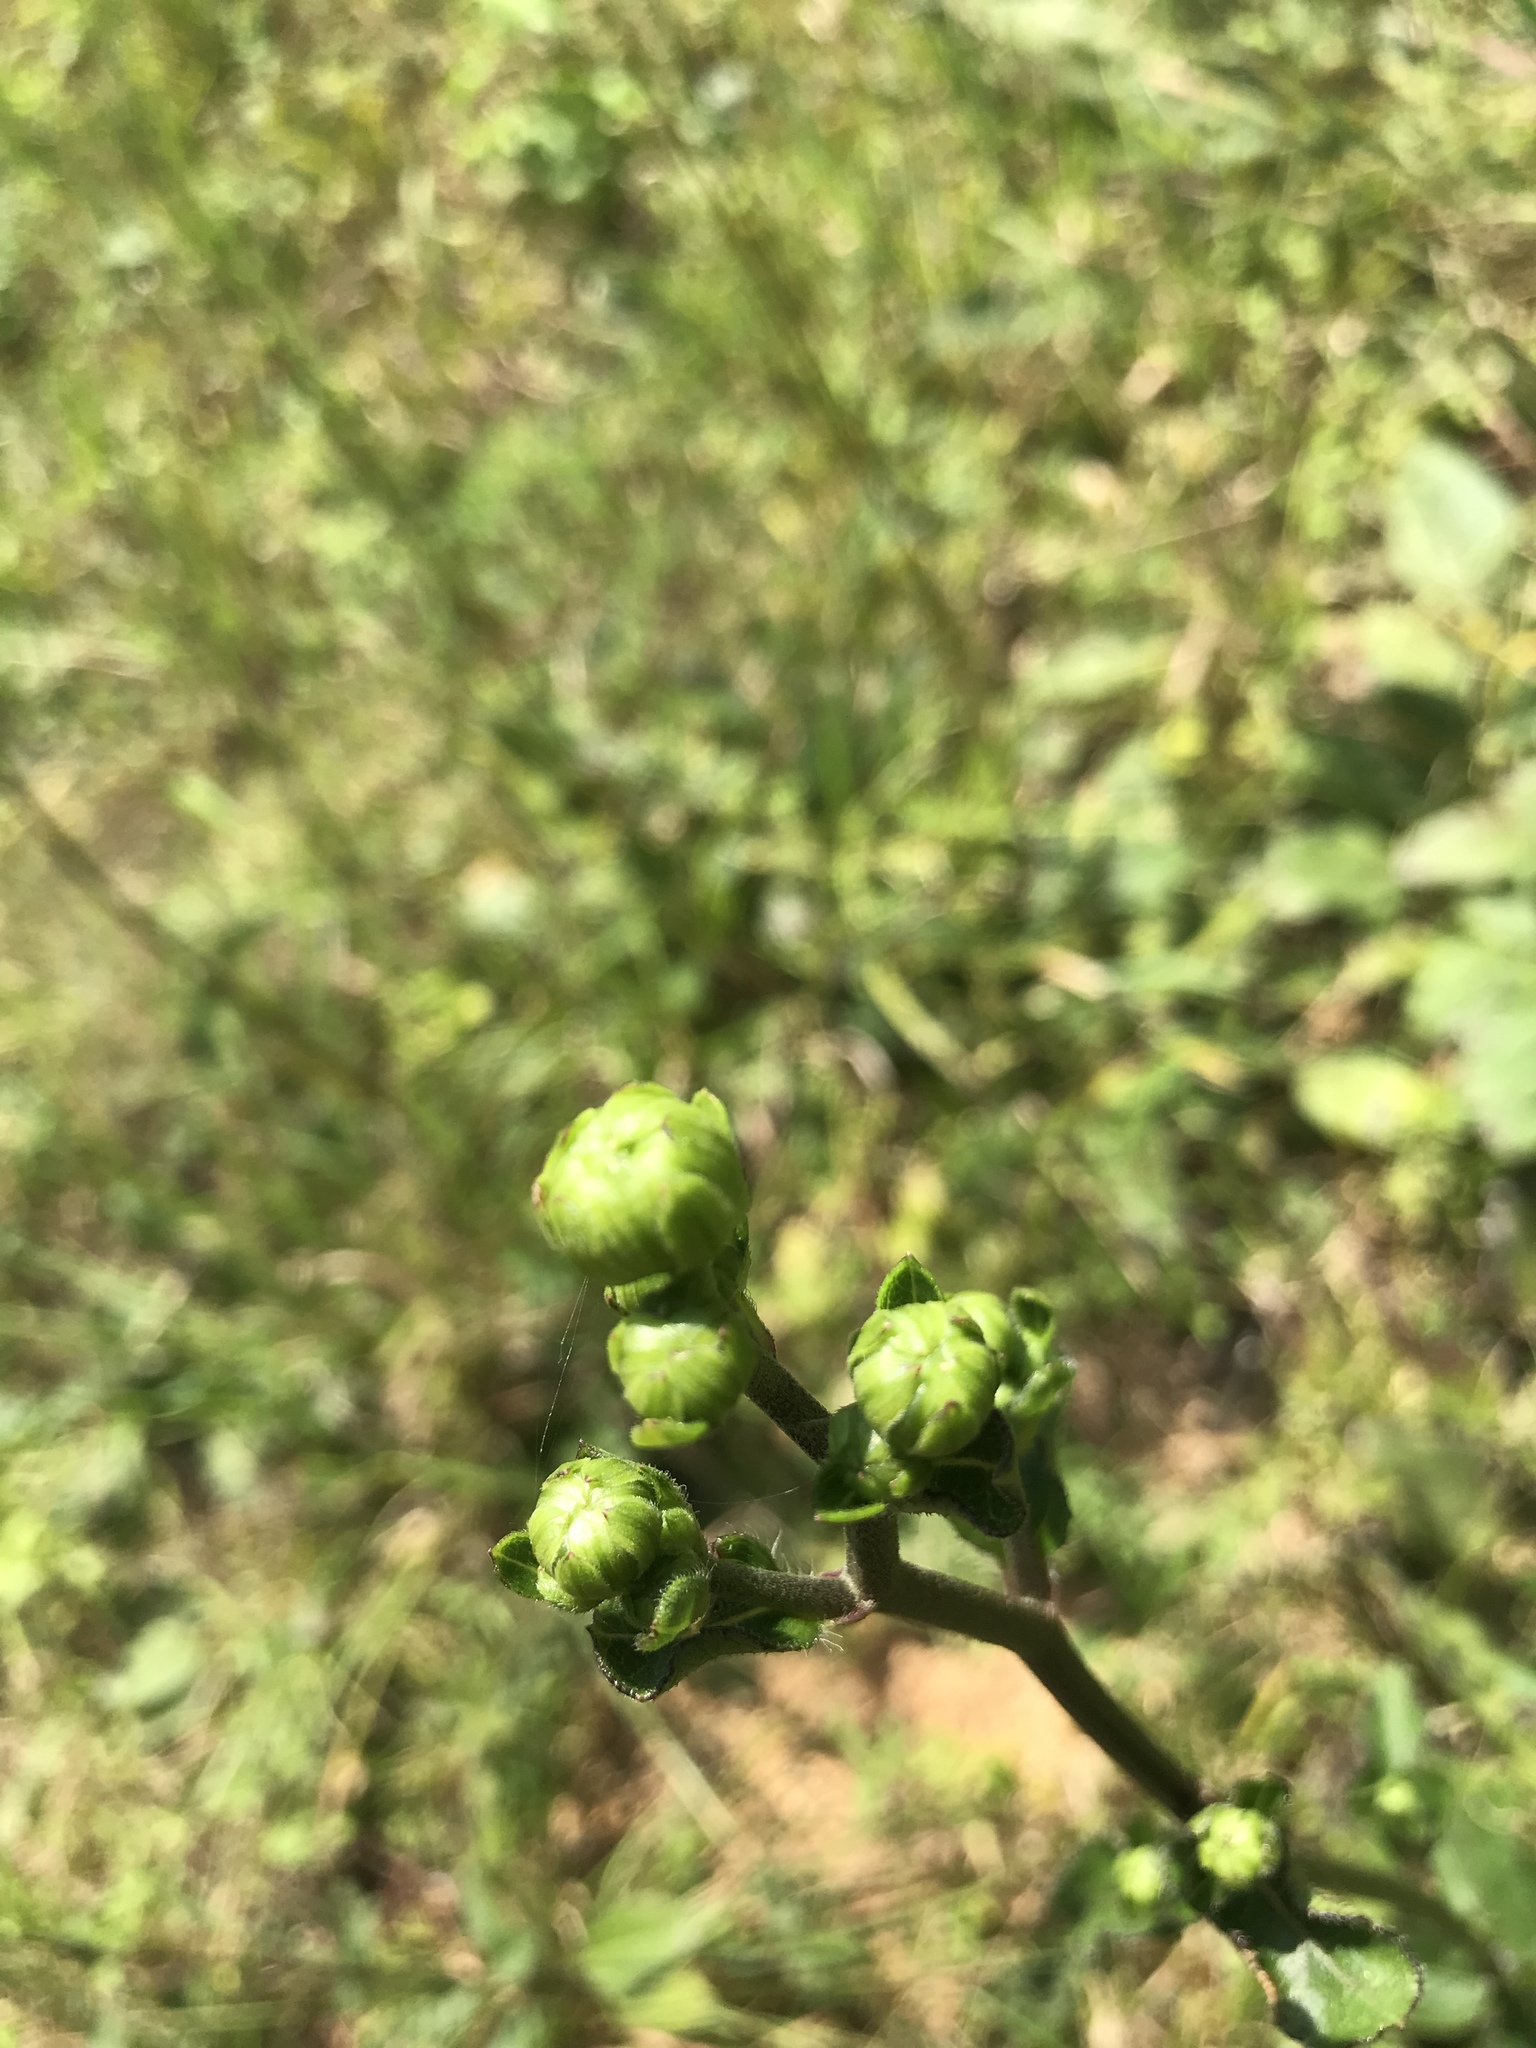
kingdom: Plantae
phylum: Tracheophyta
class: Magnoliopsida
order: Asterales
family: Asteraceae
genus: Helianthus
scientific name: Helianthus atrorubens
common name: Dark-eyed sunflower
